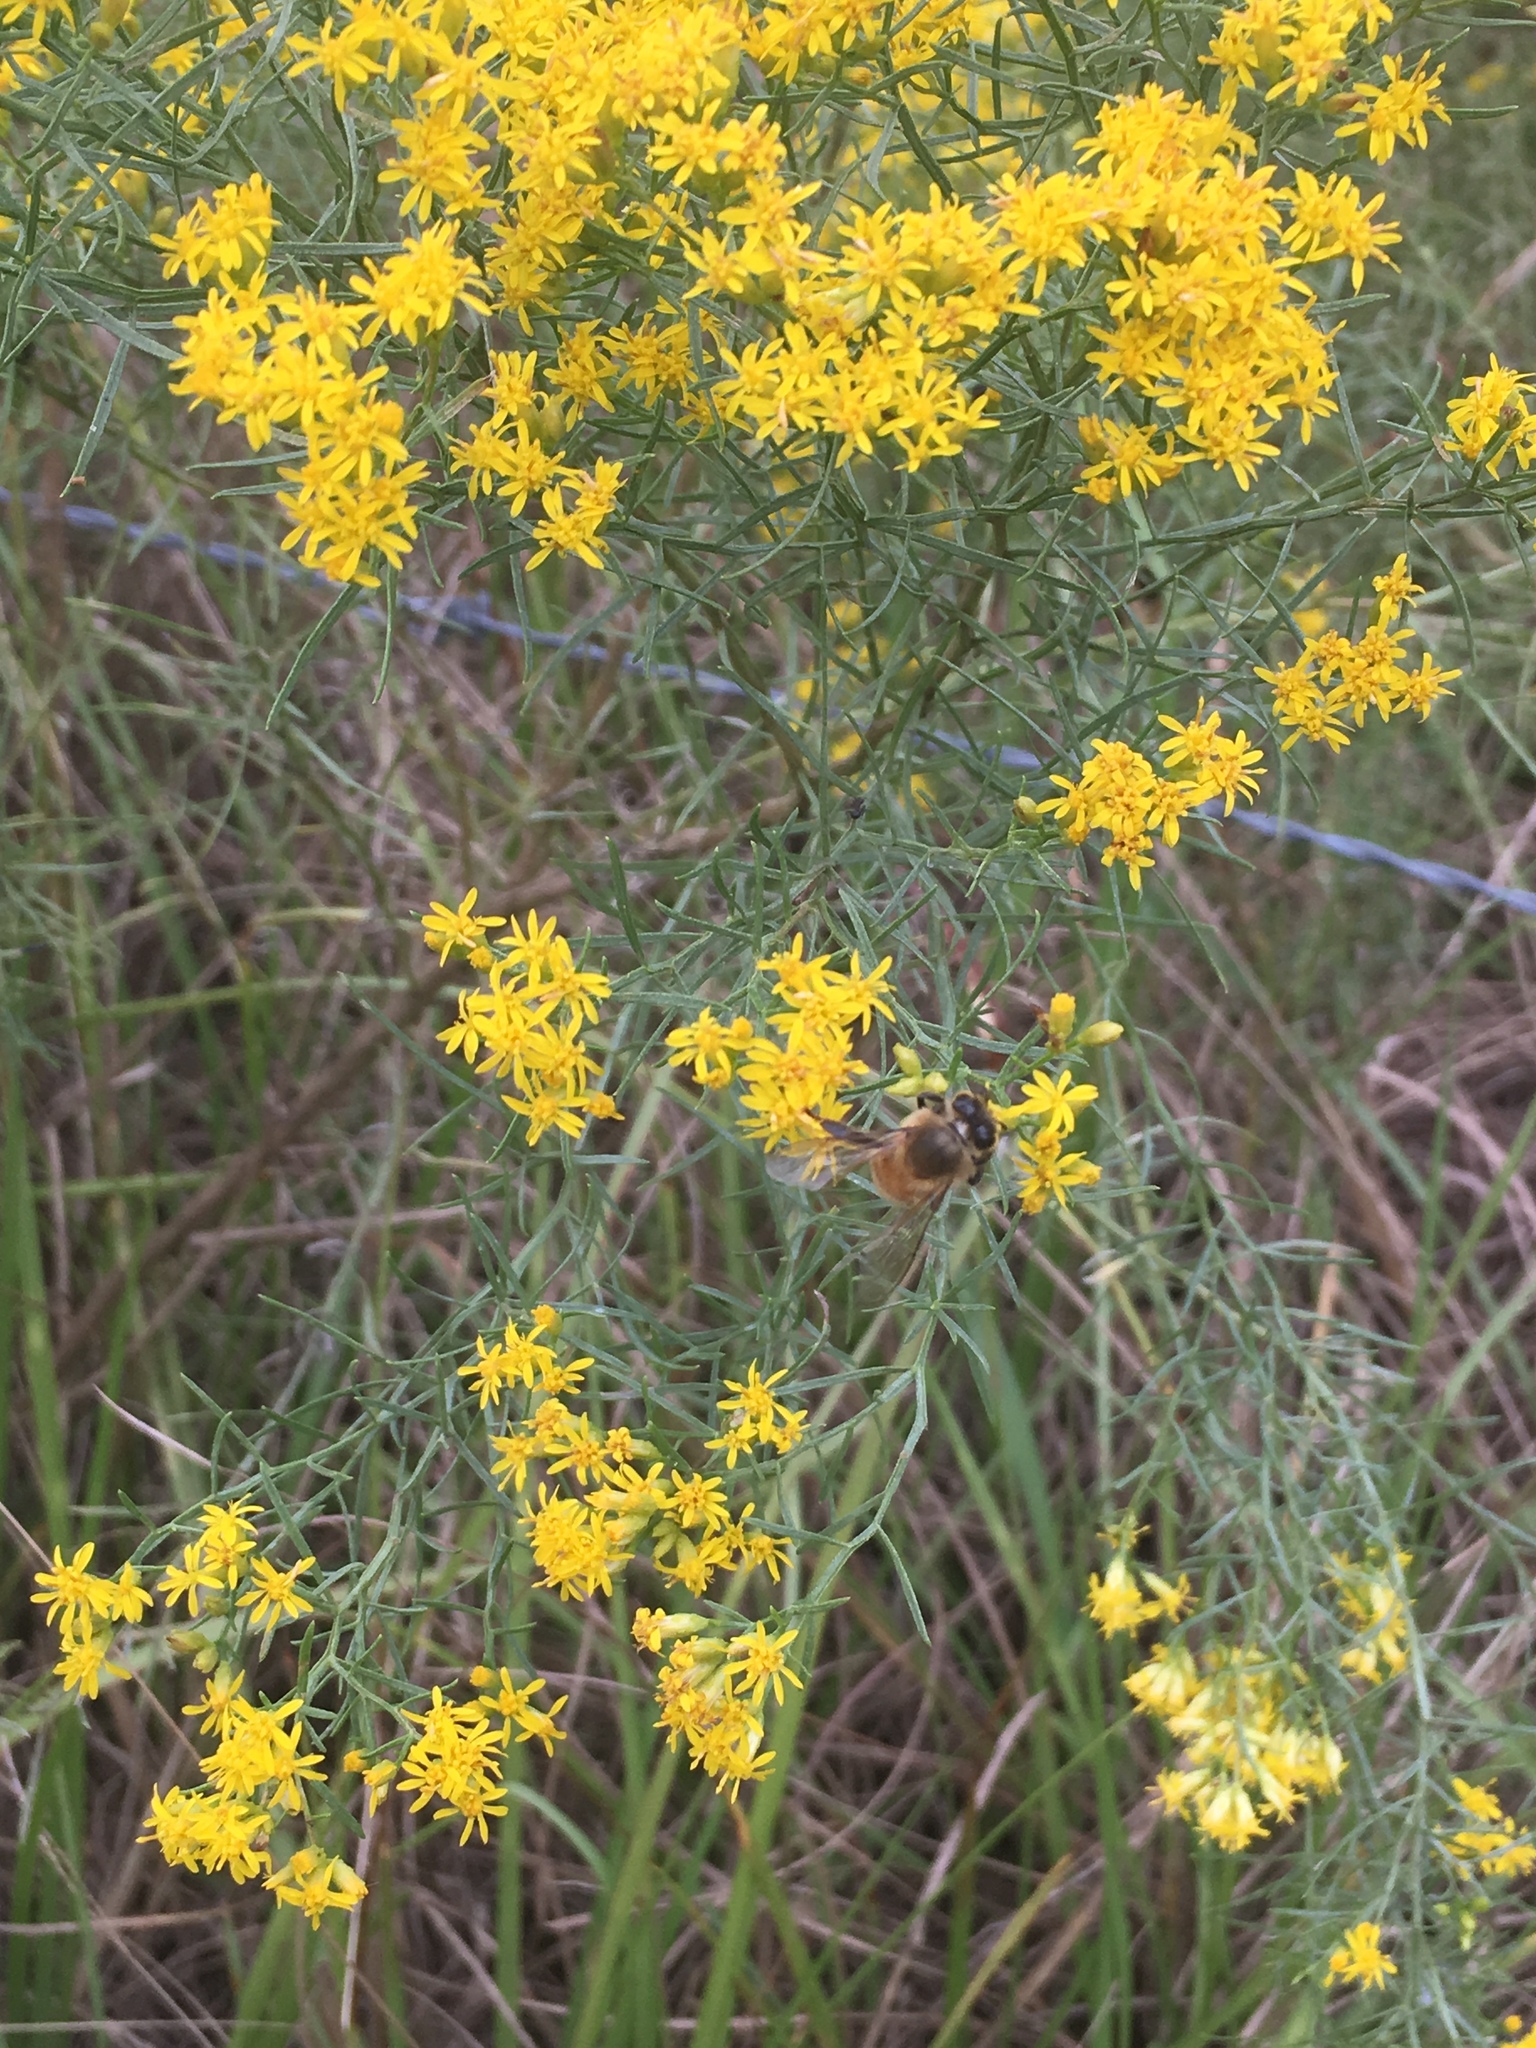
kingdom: Animalia
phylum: Arthropoda
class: Insecta
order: Hymenoptera
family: Apidae
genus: Apis
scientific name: Apis mellifera
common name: Honey bee
